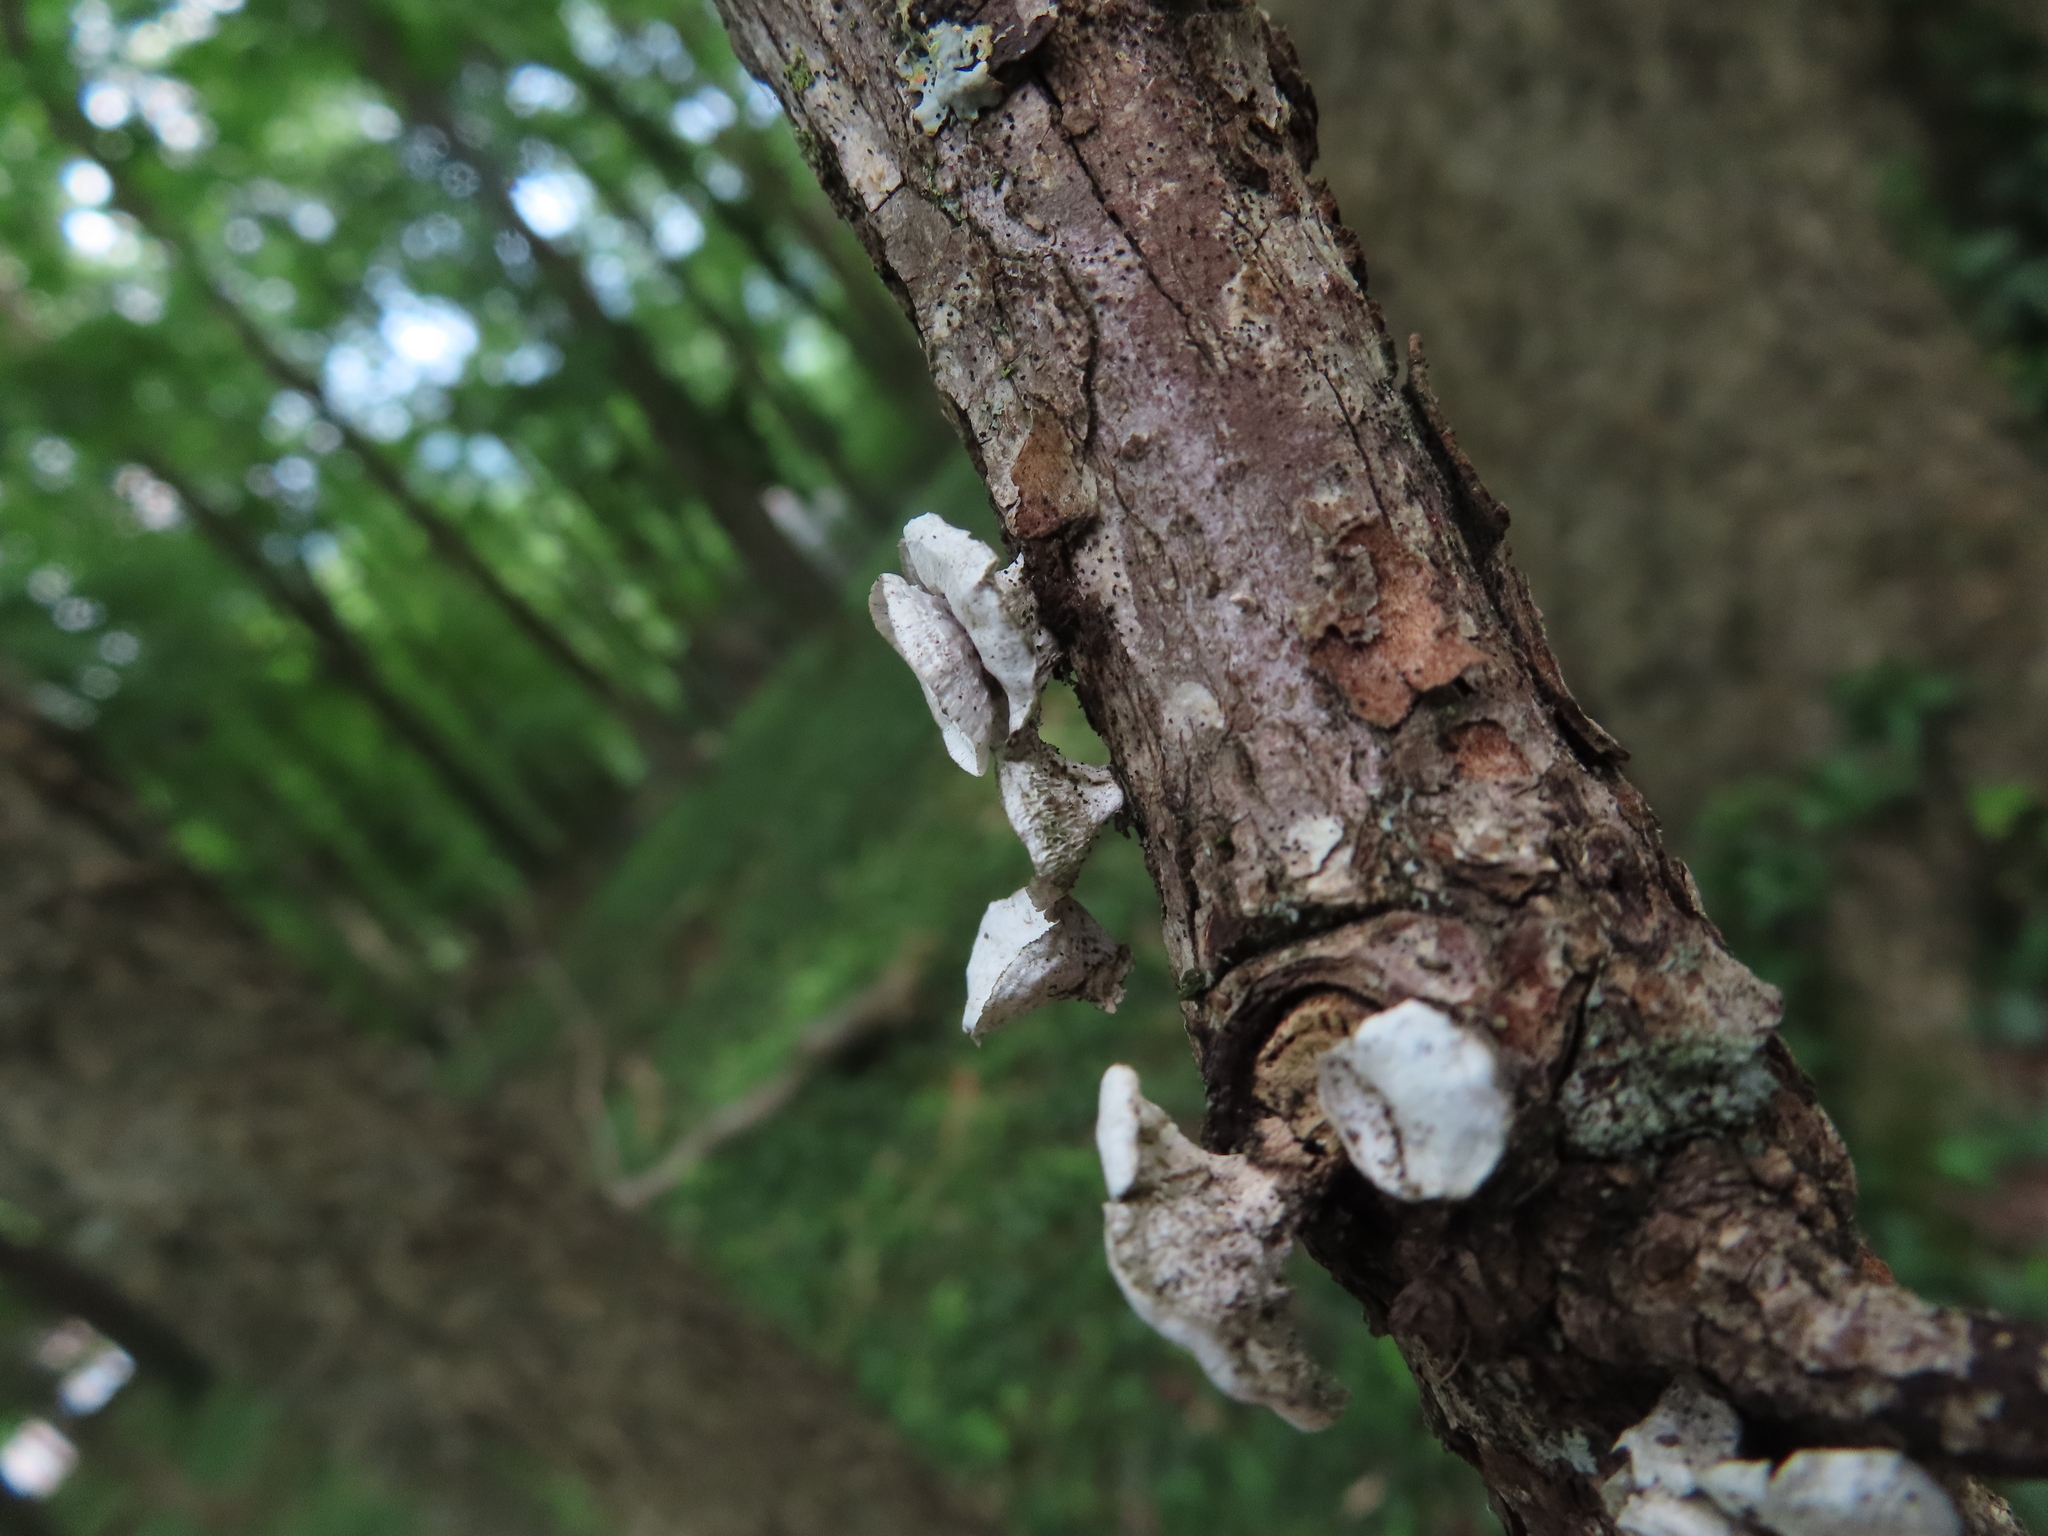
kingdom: Fungi
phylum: Basidiomycota
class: Agaricomycetes
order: Polyporales
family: Polyporaceae
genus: Poronidulus
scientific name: Poronidulus conchifer
